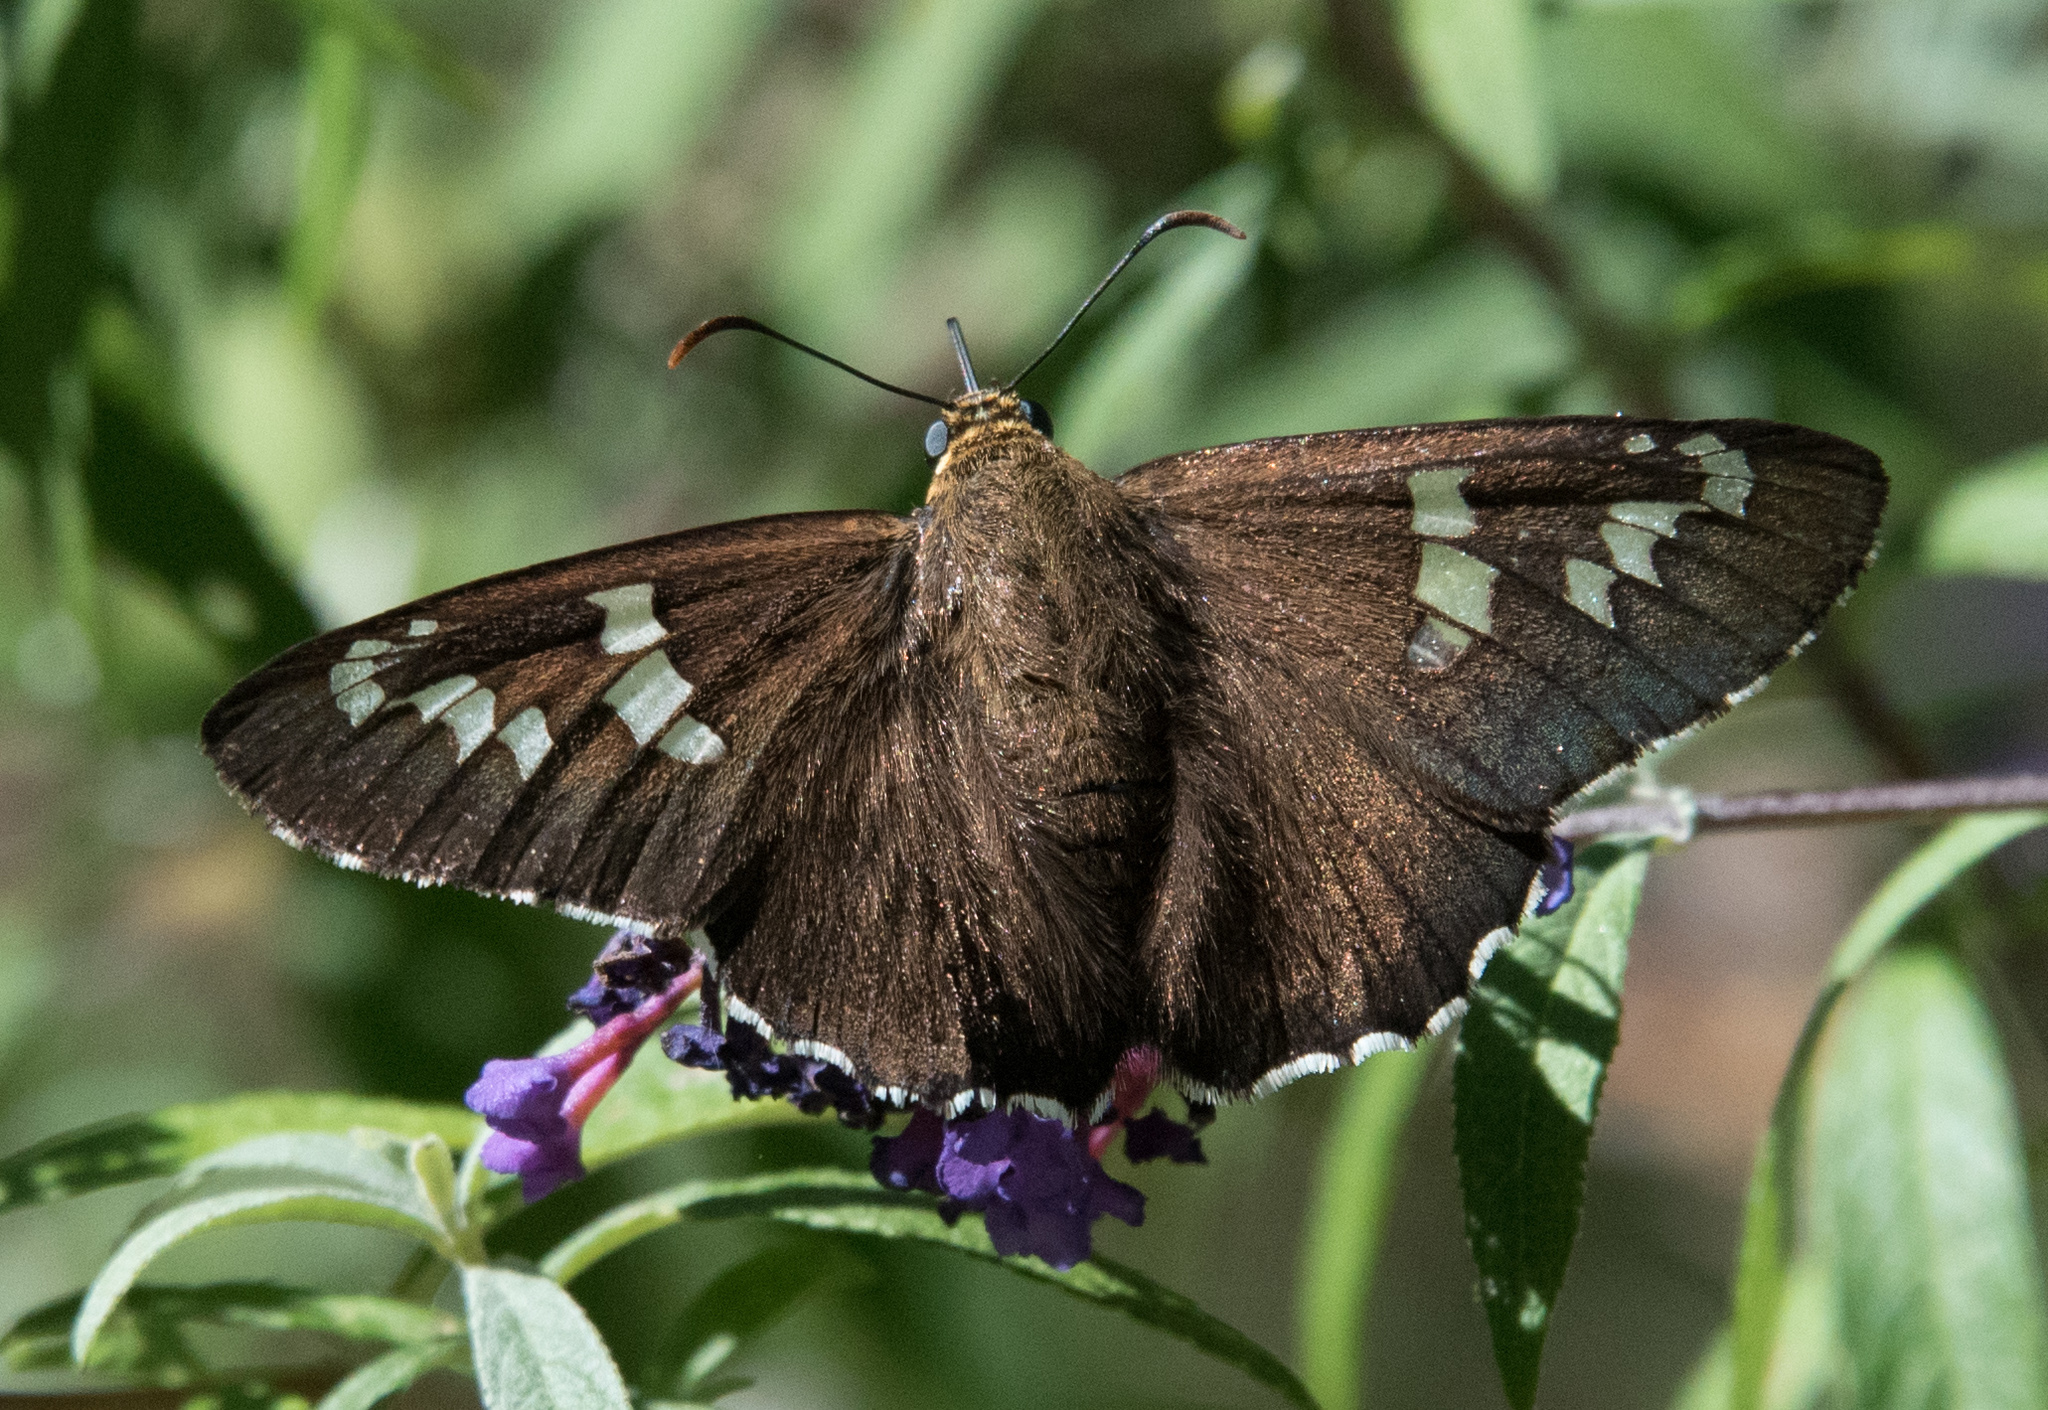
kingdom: Animalia
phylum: Arthropoda
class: Insecta
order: Lepidoptera
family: Hesperiidae
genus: Pyrrhopyge
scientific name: Pyrrhopyge araxes
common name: Dull firetip
